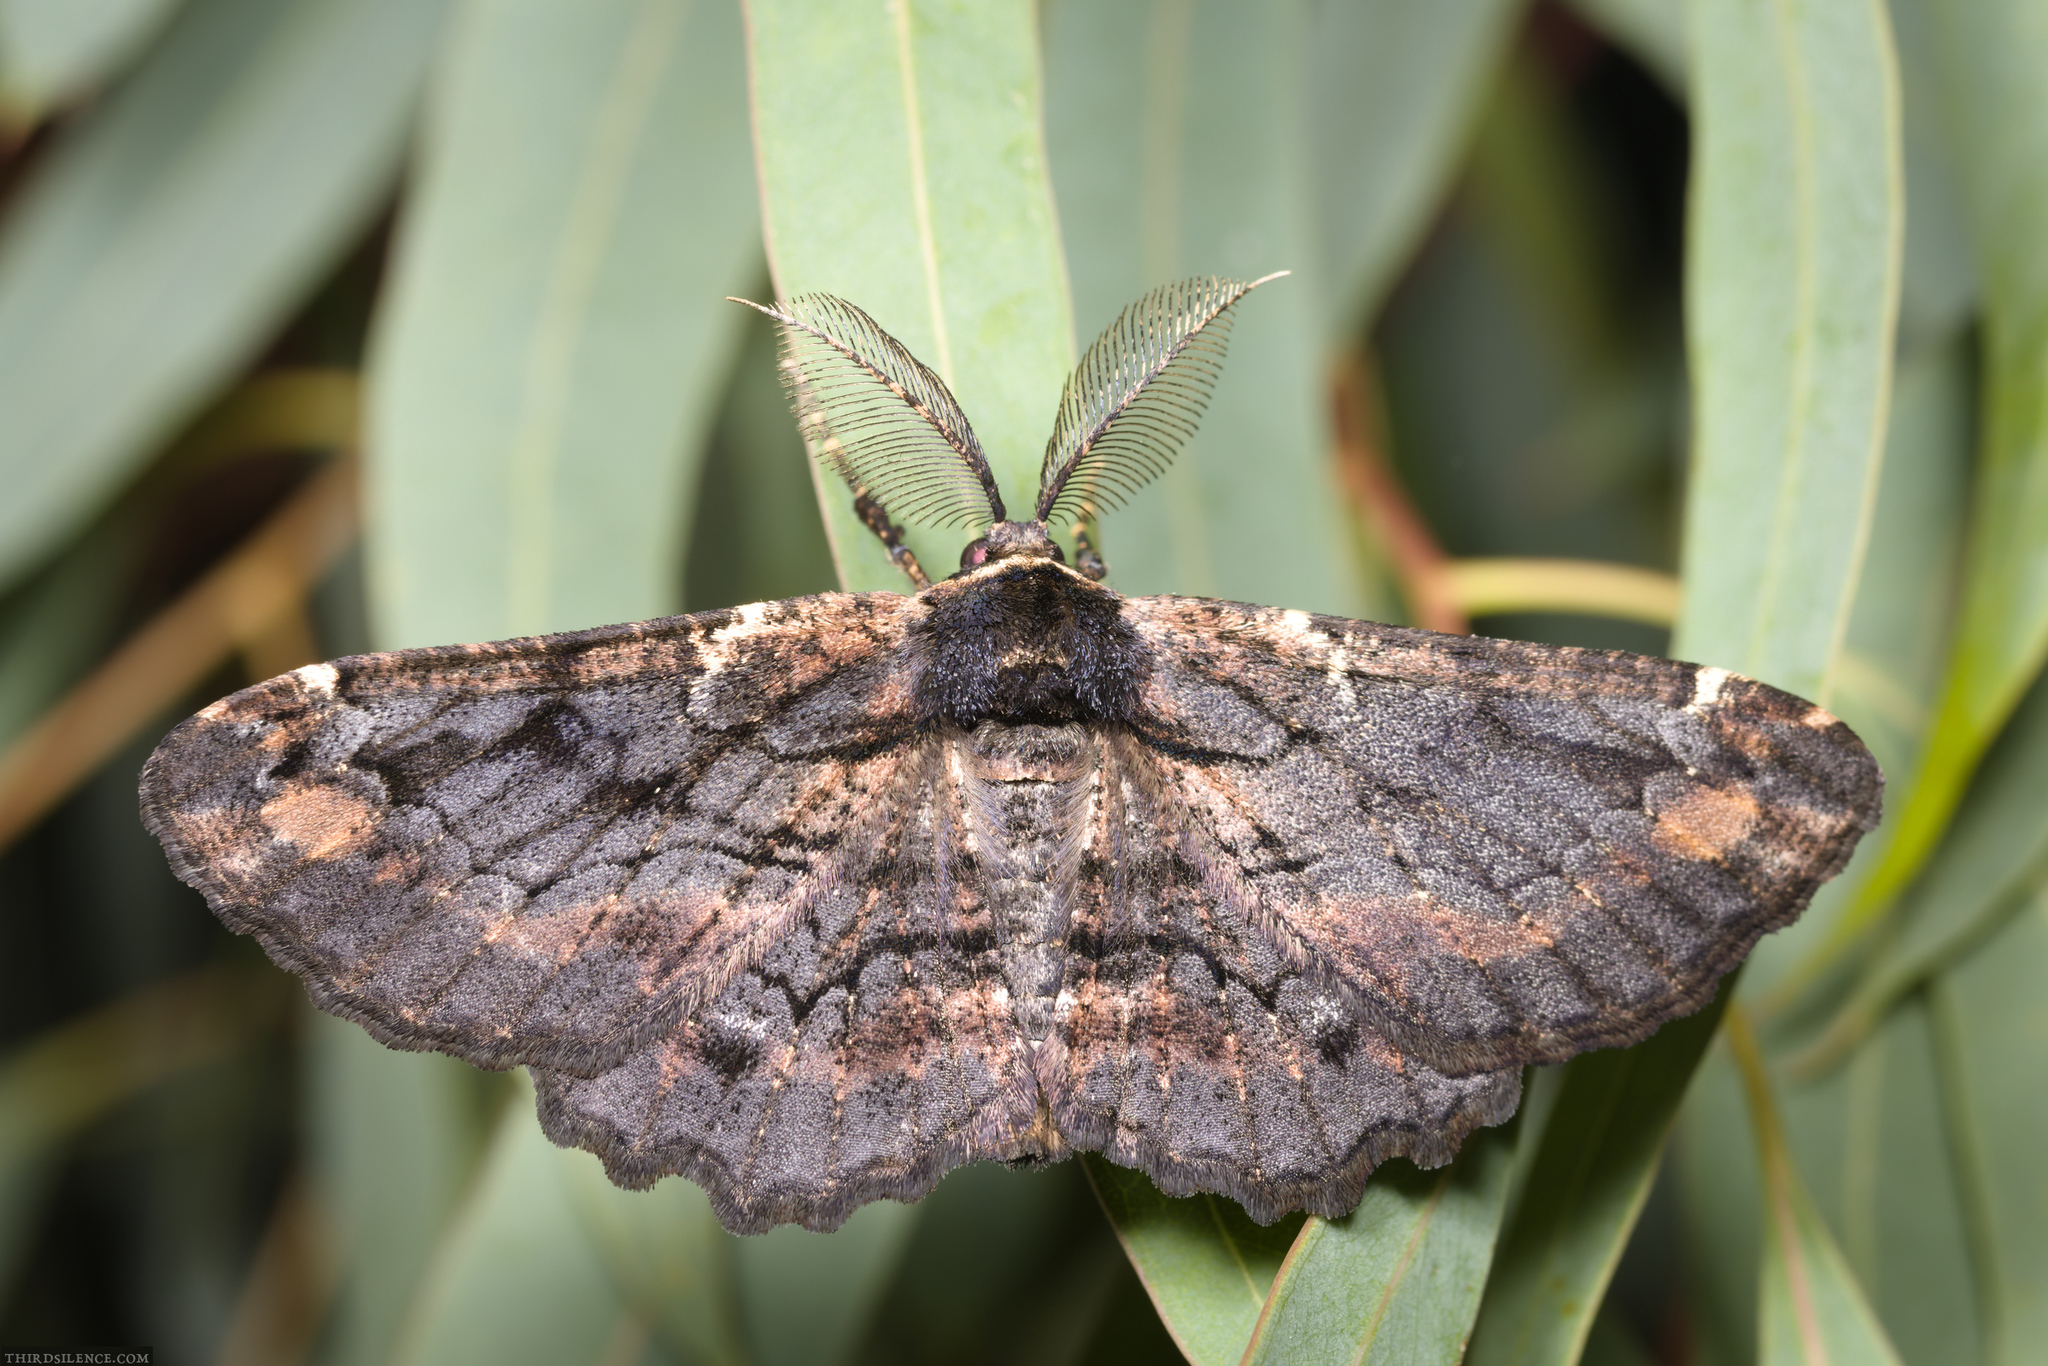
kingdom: Animalia
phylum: Arthropoda
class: Insecta
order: Lepidoptera
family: Geometridae
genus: Pholodes
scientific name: Pholodes sinistraria
